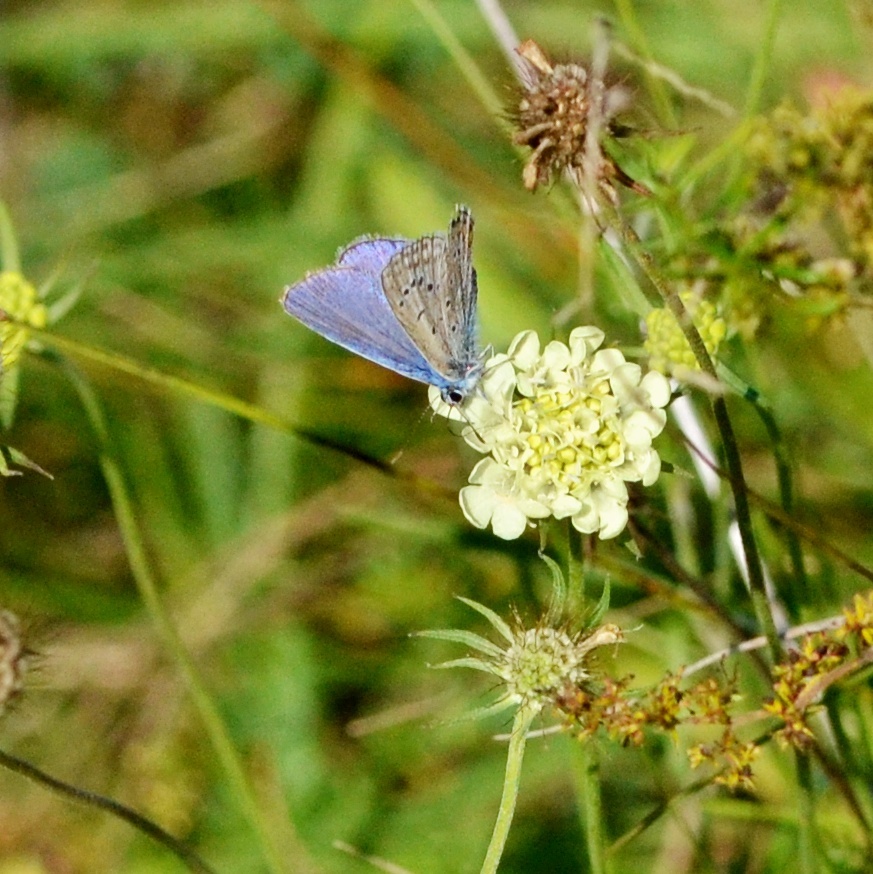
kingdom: Animalia
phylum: Arthropoda
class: Insecta
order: Lepidoptera
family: Lycaenidae
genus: Polyommatus
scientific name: Polyommatus icarus
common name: Common blue
